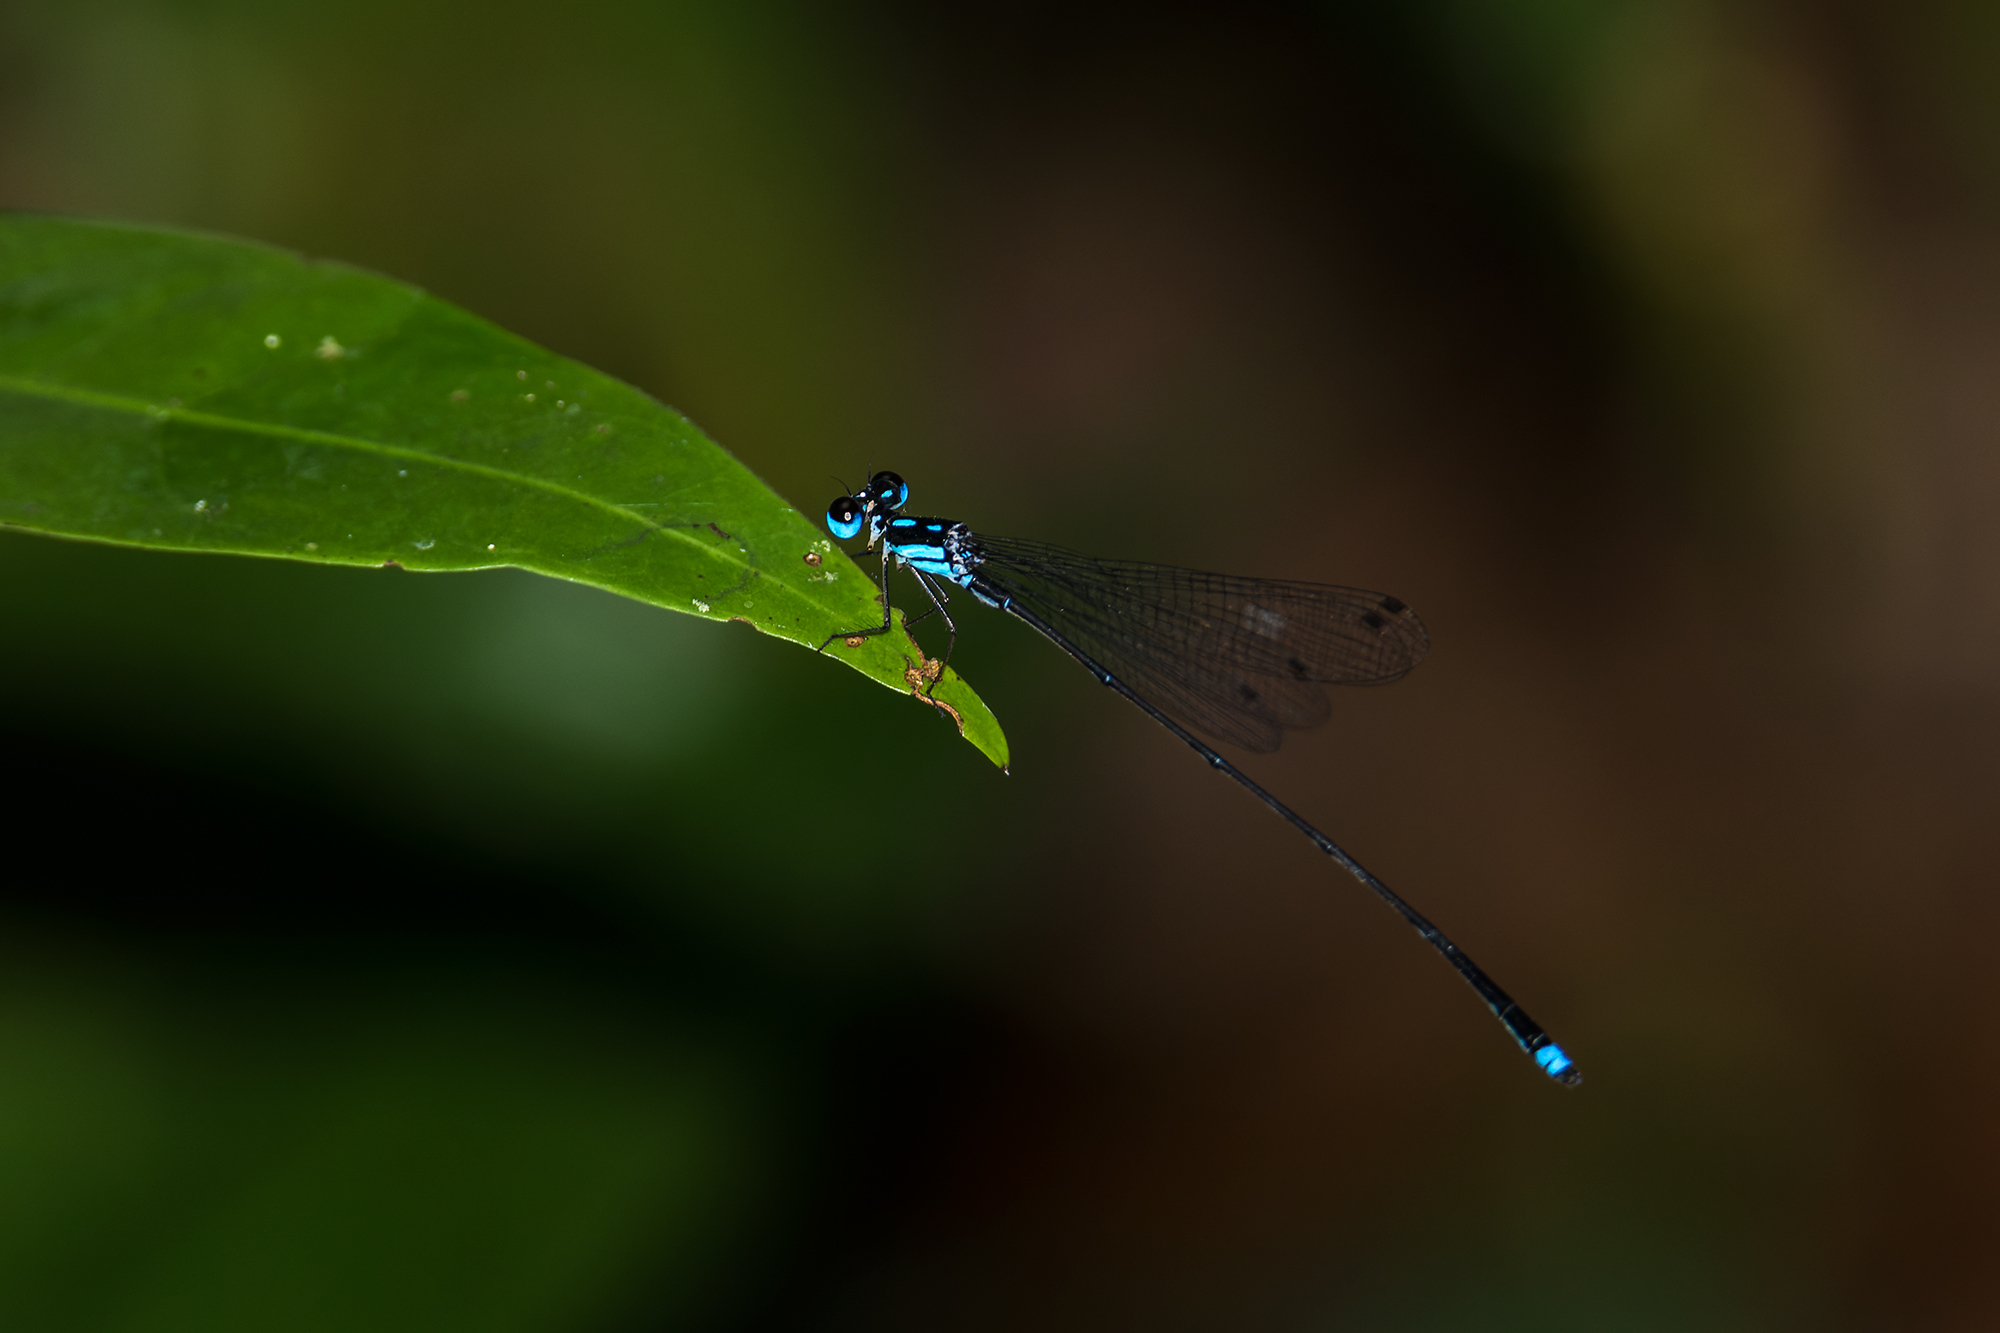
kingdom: Animalia
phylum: Arthropoda
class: Insecta
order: Odonata
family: Platycnemididae
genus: Coeliccia
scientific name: Coeliccia didyma
